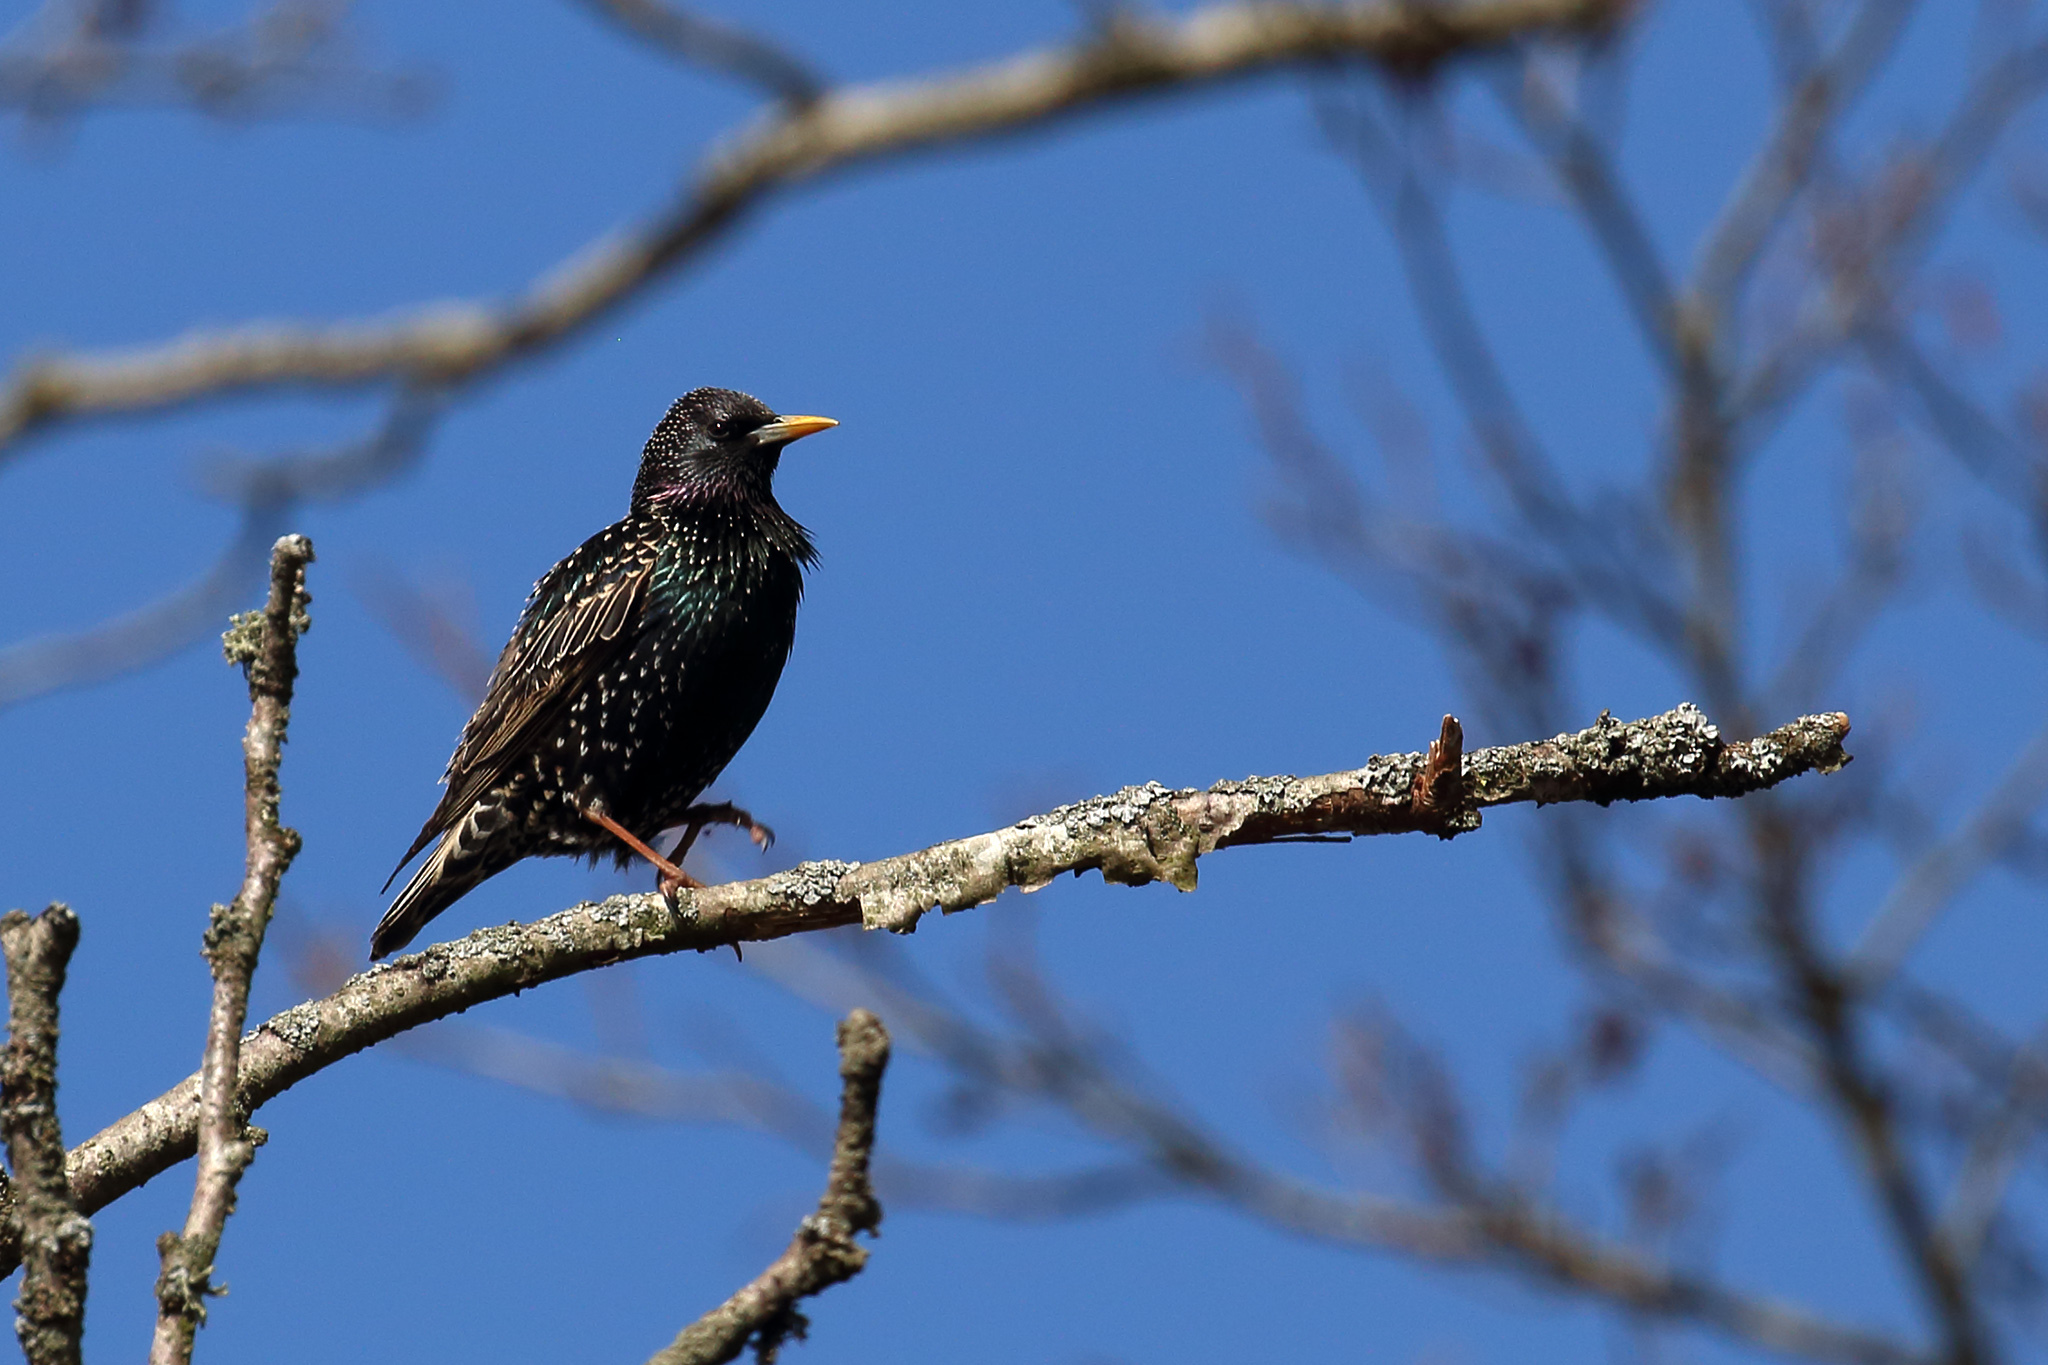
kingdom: Animalia
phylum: Chordata
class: Aves
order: Passeriformes
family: Sturnidae
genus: Sturnus
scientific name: Sturnus vulgaris
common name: Common starling
